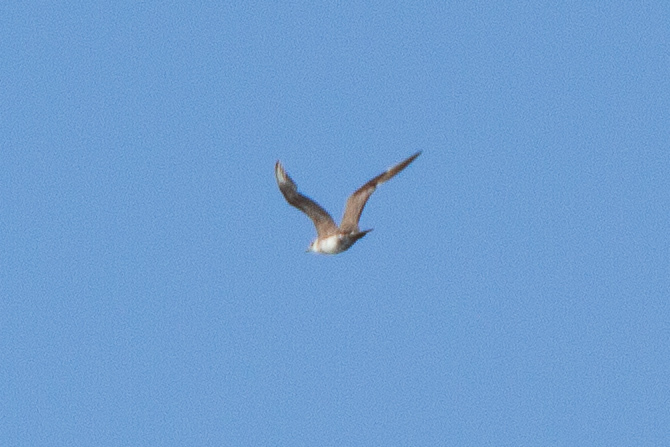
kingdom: Animalia
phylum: Chordata
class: Aves
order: Charadriiformes
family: Stercorariidae
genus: Stercorarius
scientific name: Stercorarius parasiticus
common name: Parasitic jaeger
